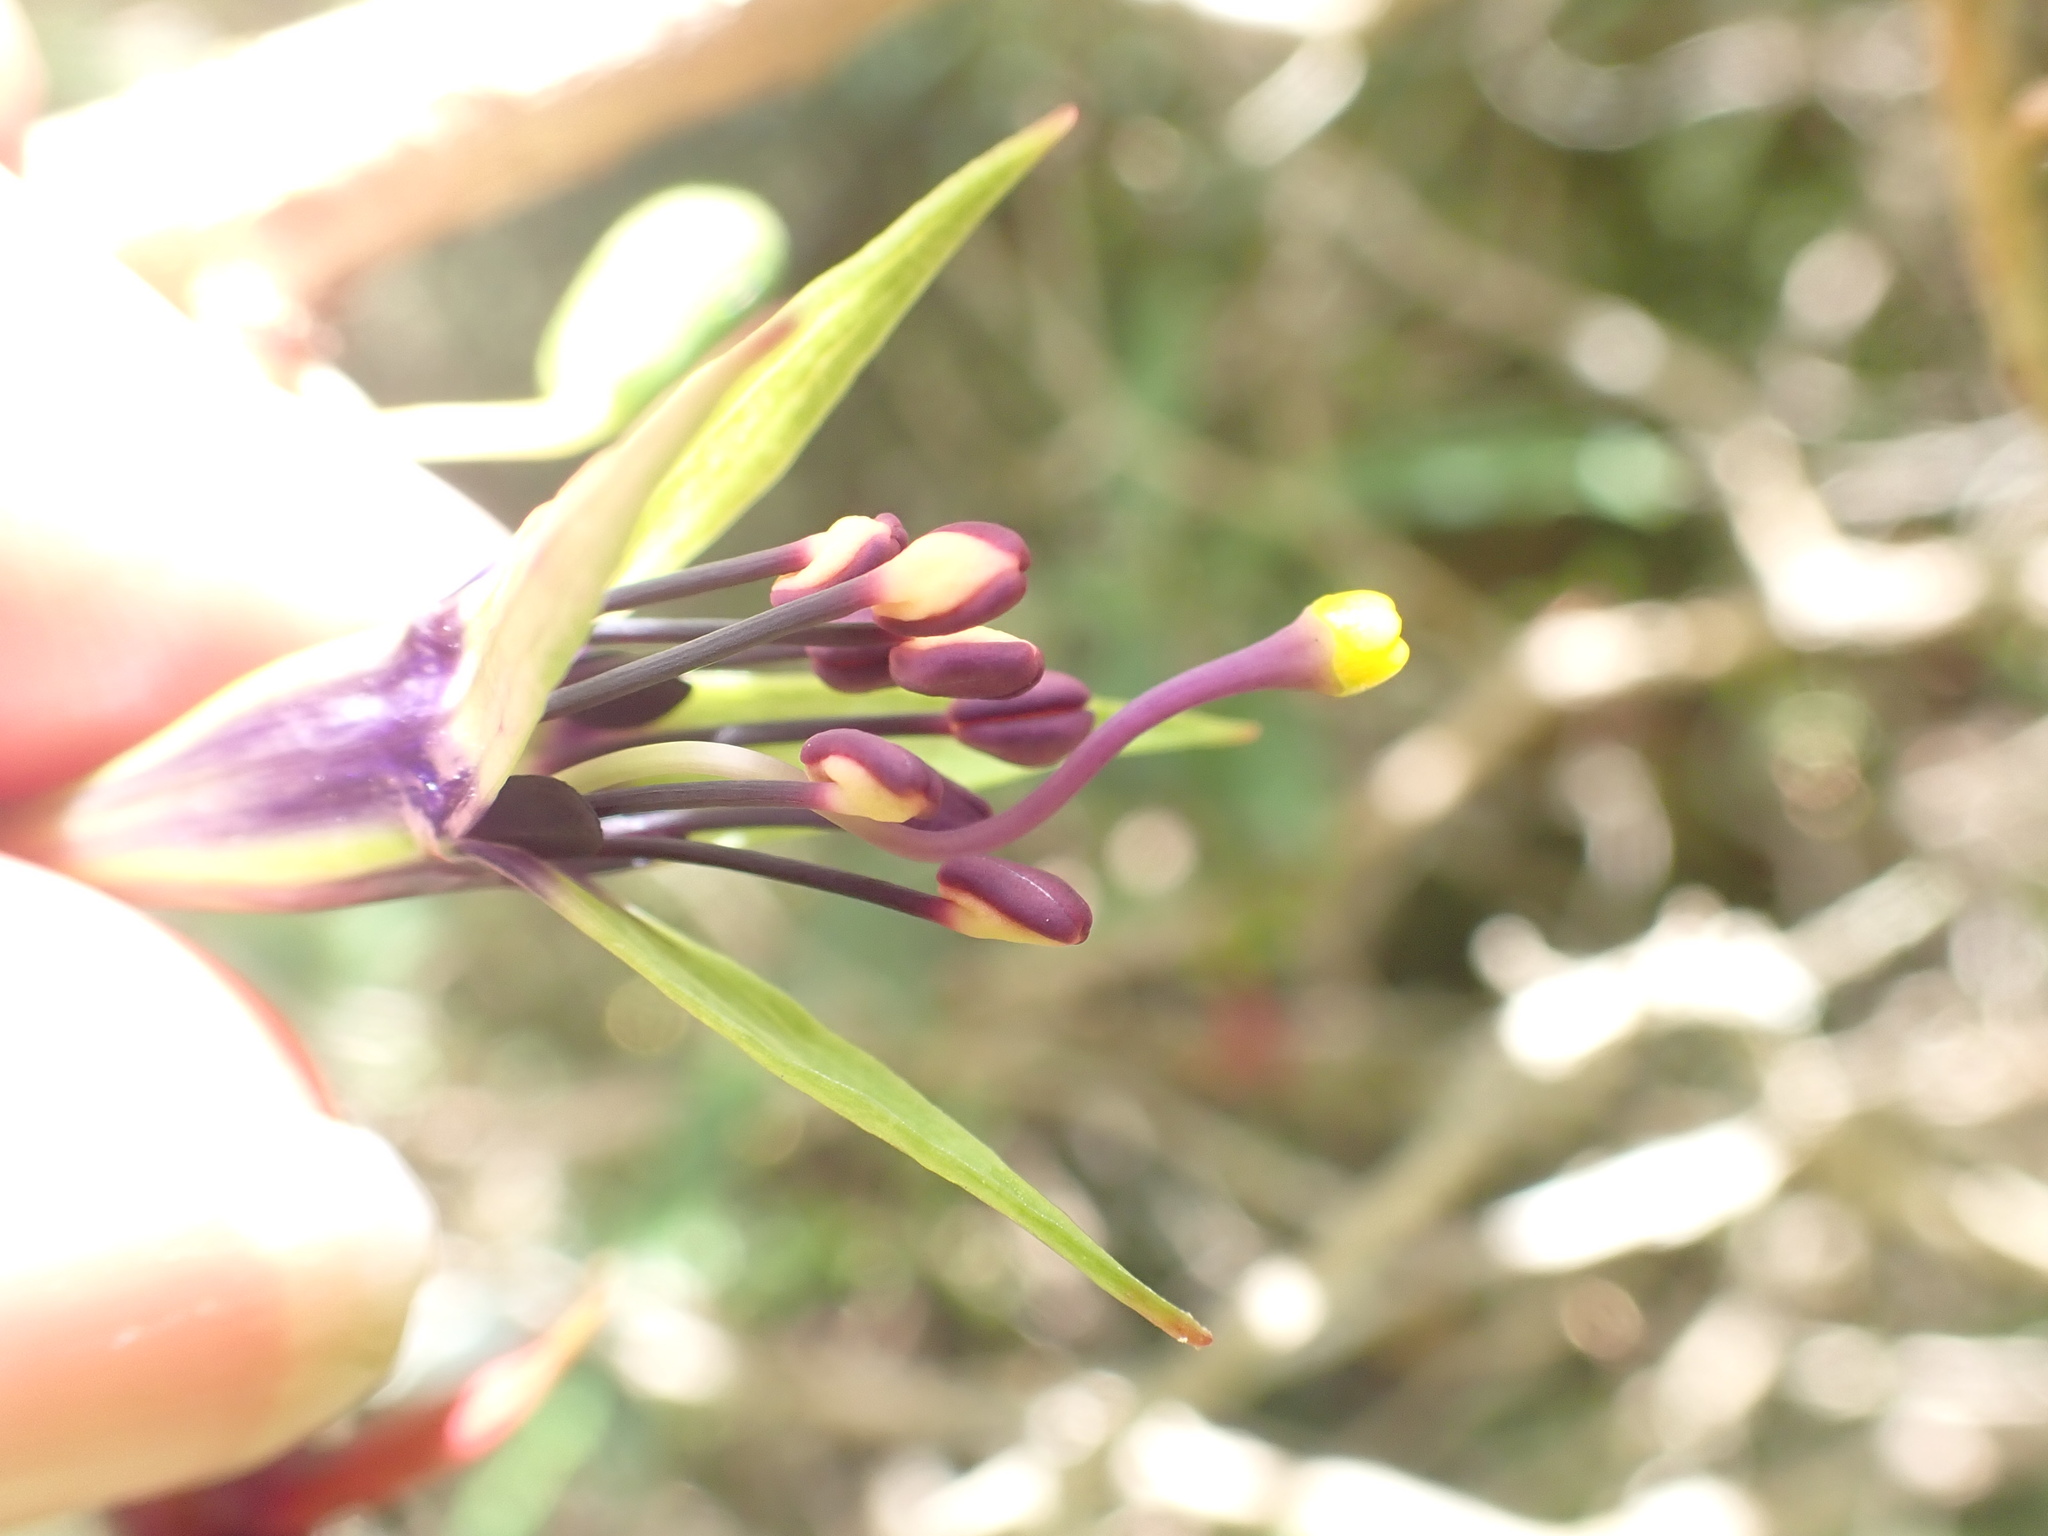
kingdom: Plantae
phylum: Tracheophyta
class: Magnoliopsida
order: Myrtales
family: Onagraceae
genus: Fuchsia
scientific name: Fuchsia
